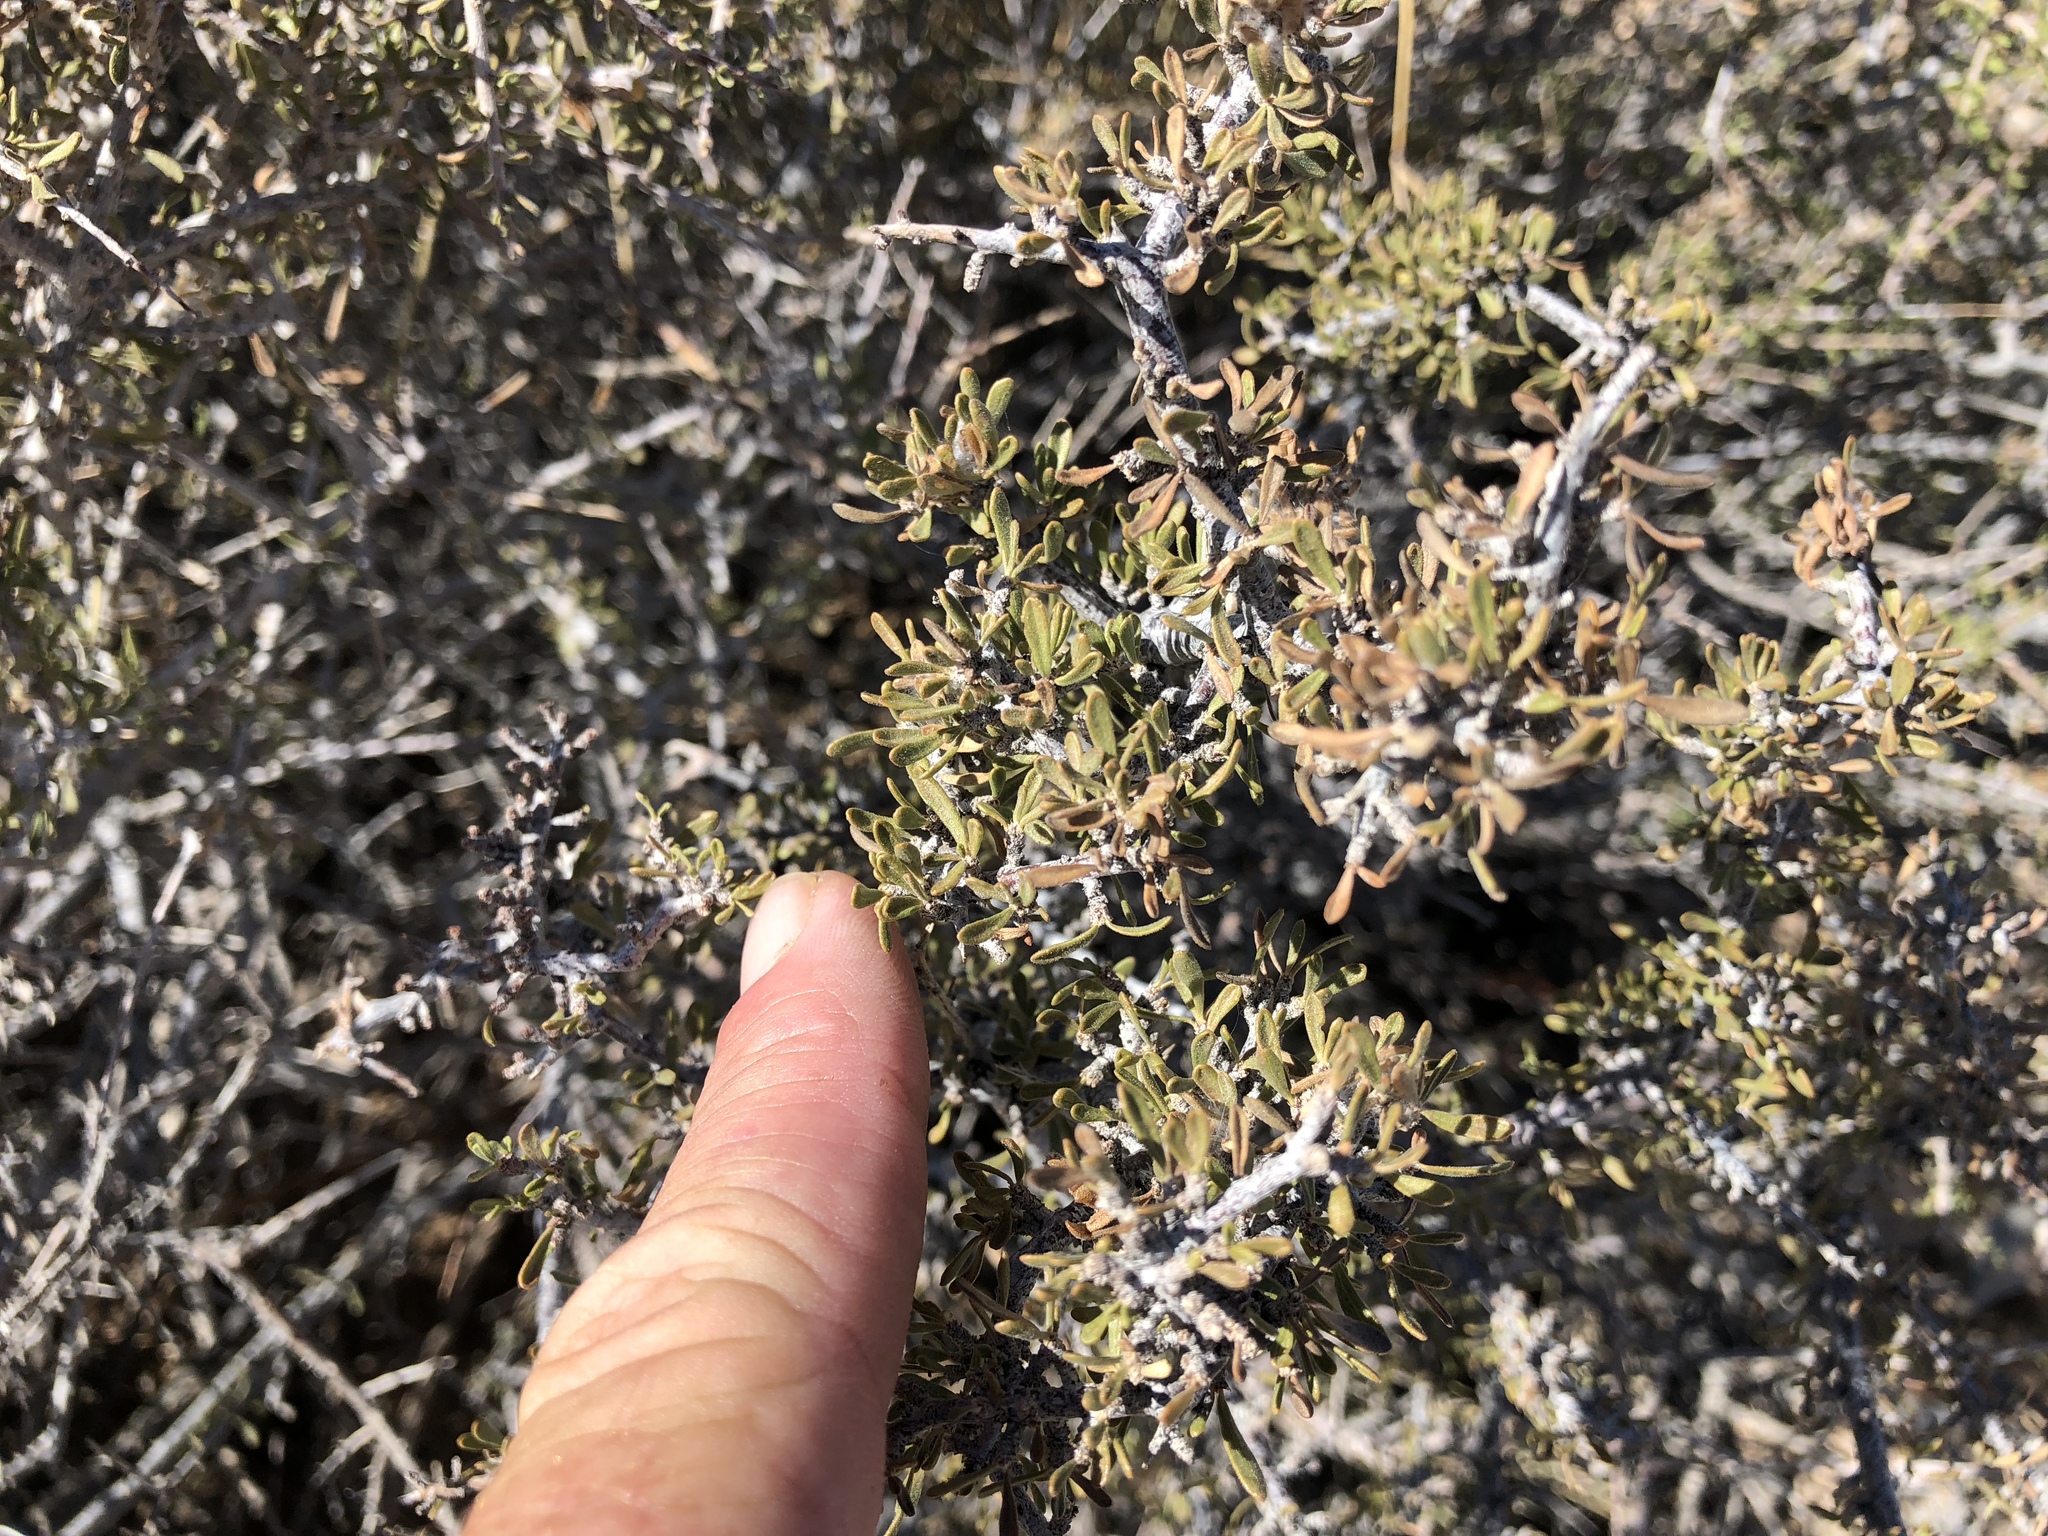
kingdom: Plantae
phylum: Tracheophyta
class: Magnoliopsida
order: Rosales
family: Rosaceae
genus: Coleogyne
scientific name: Coleogyne ramosissima
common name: Blackbrush
